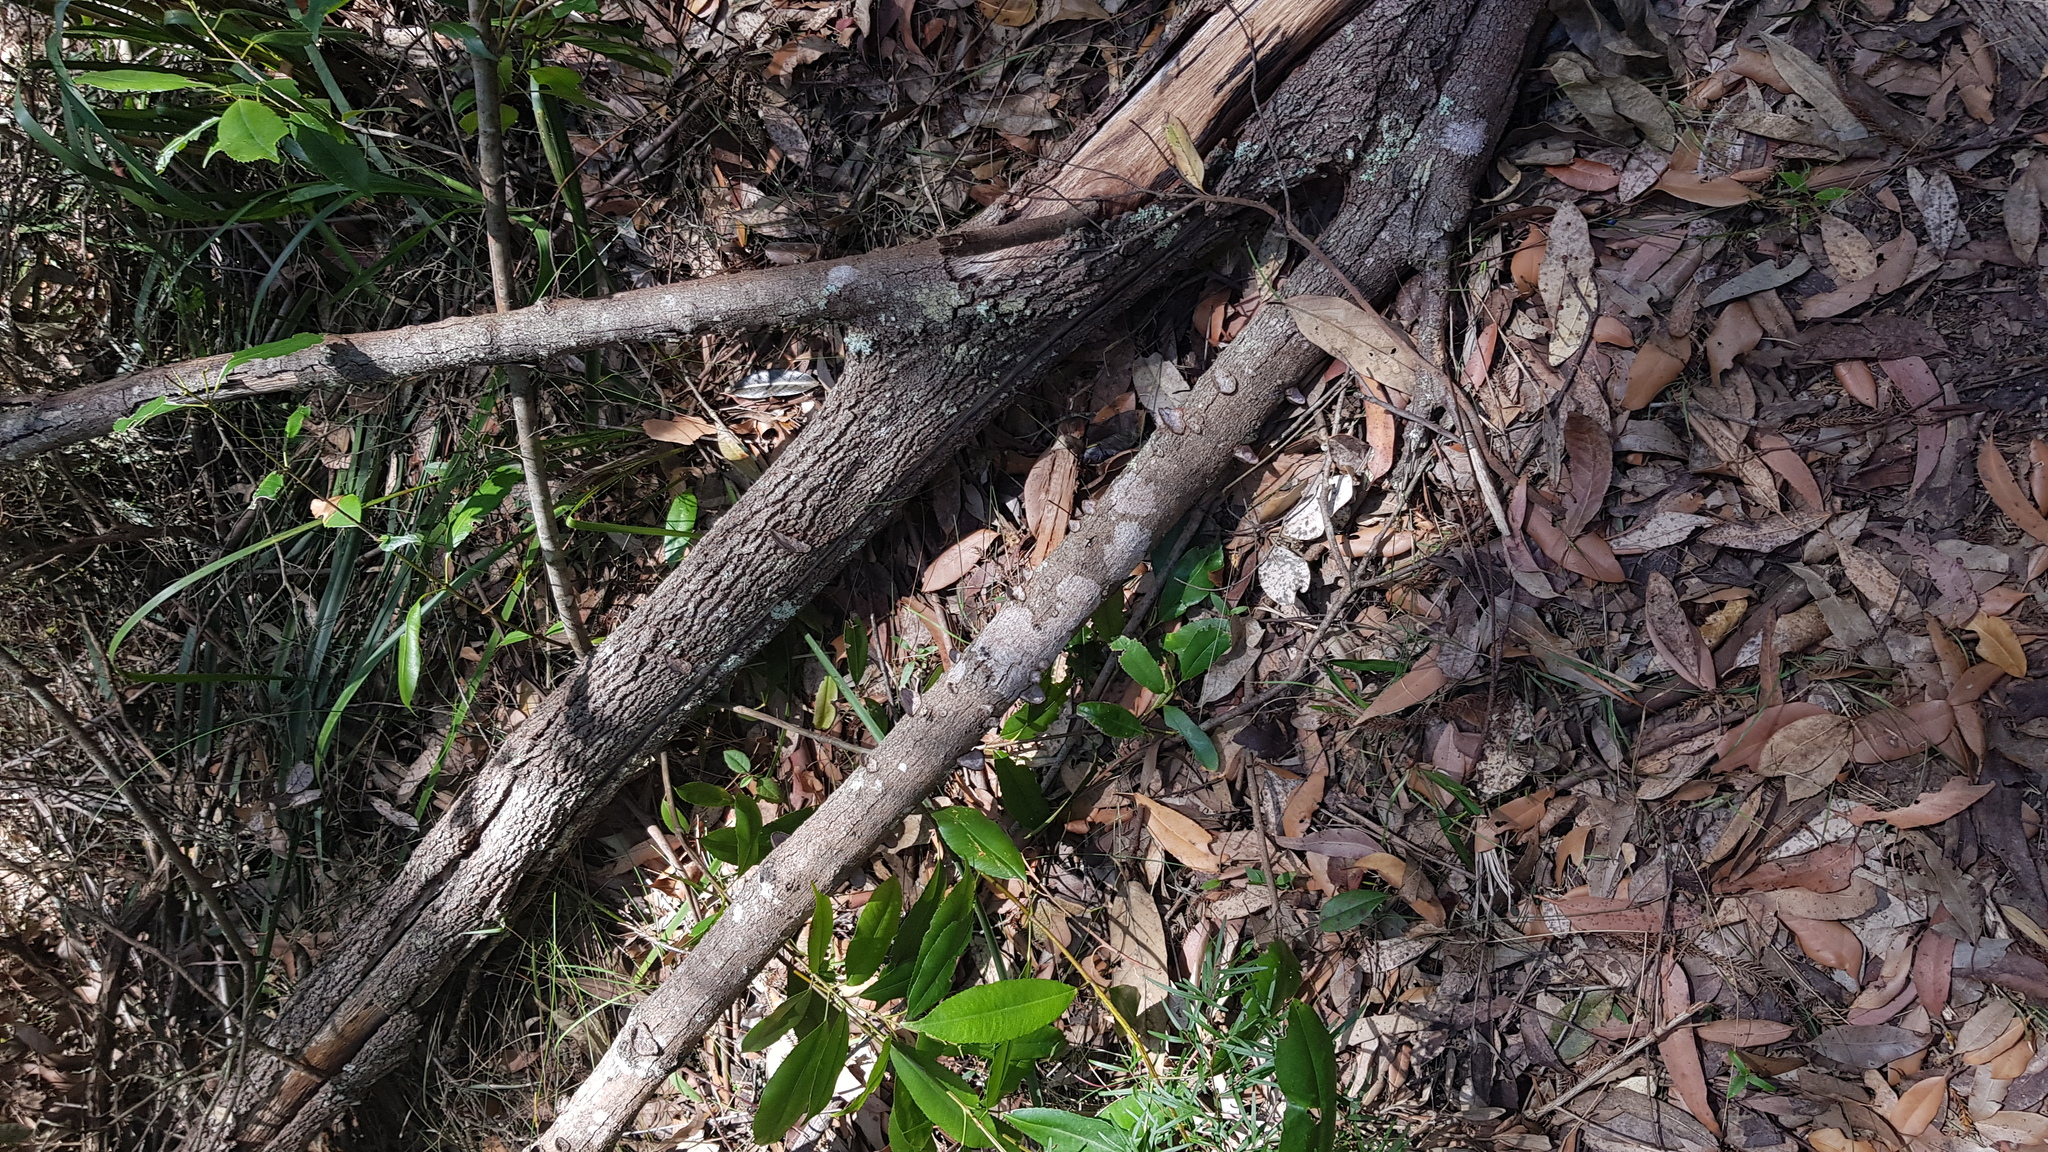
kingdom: Fungi
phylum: Basidiomycota
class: Agaricomycetes
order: Polyporales
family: Polyporaceae
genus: Phaeotrametes
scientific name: Phaeotrametes decipiens
